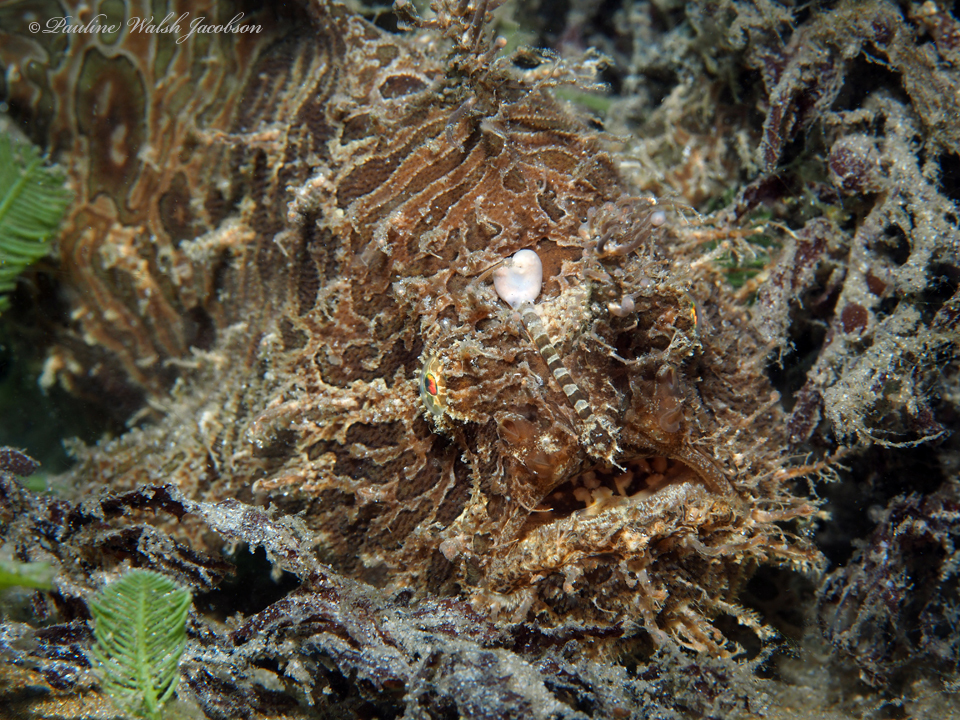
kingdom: Animalia
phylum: Chordata
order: Lophiiformes
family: Antennariidae
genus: Antennarius
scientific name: Antennarius striatus
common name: Striated frogfish
